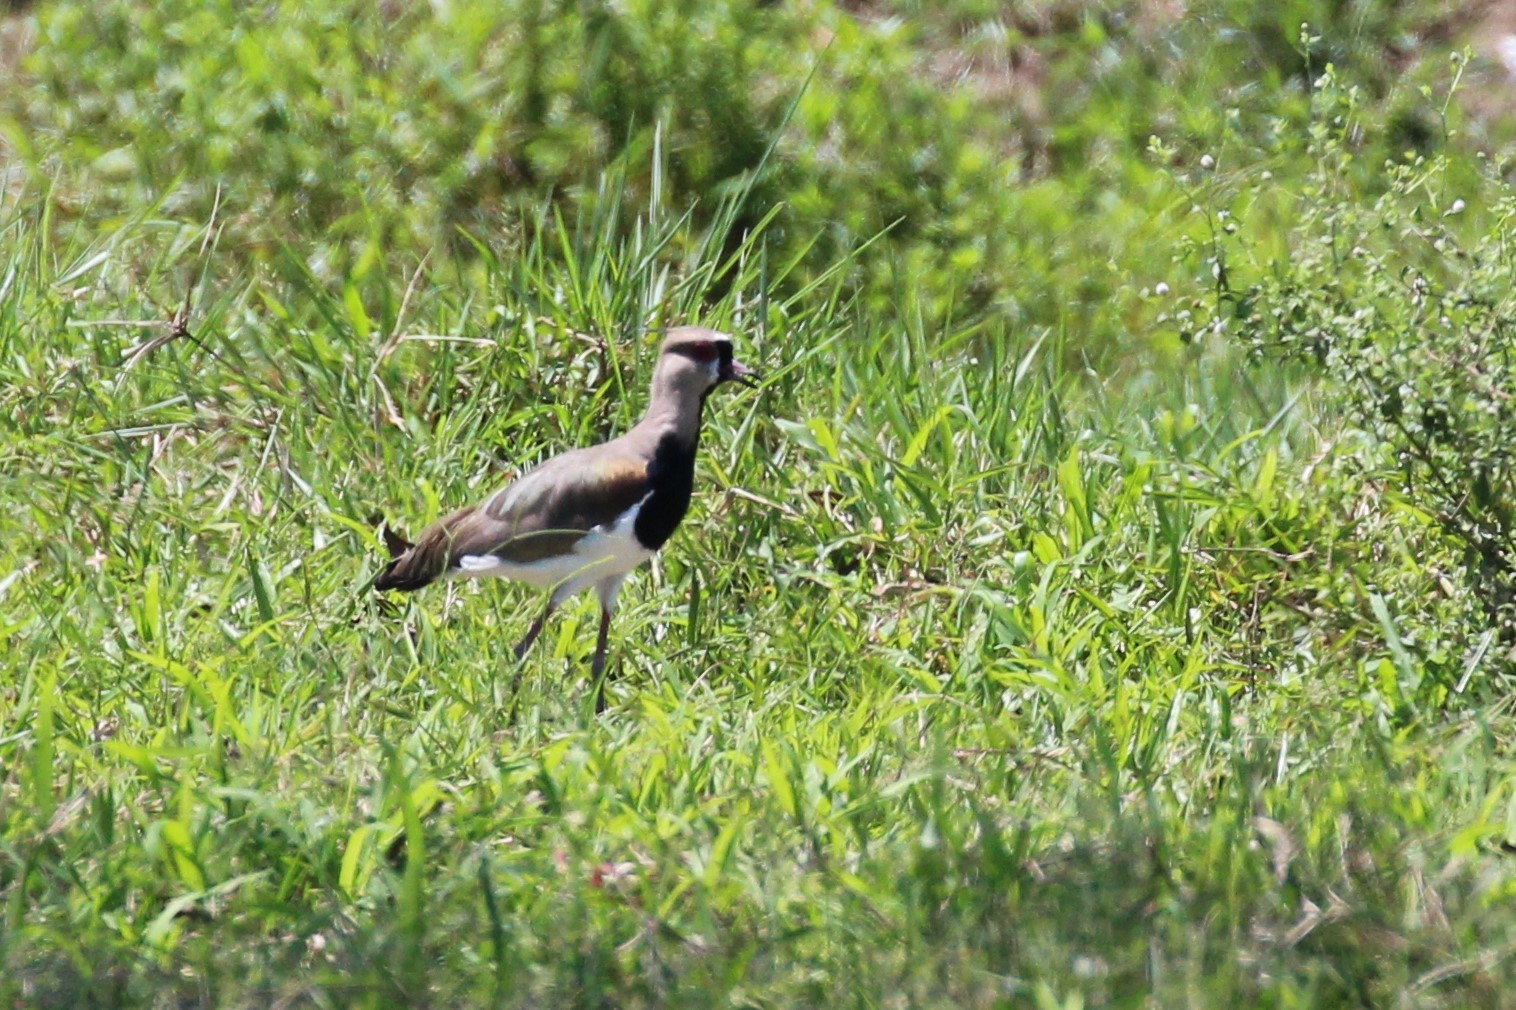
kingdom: Animalia
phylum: Chordata
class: Aves
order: Charadriiformes
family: Charadriidae
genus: Vanellus
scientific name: Vanellus chilensis
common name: Southern lapwing
